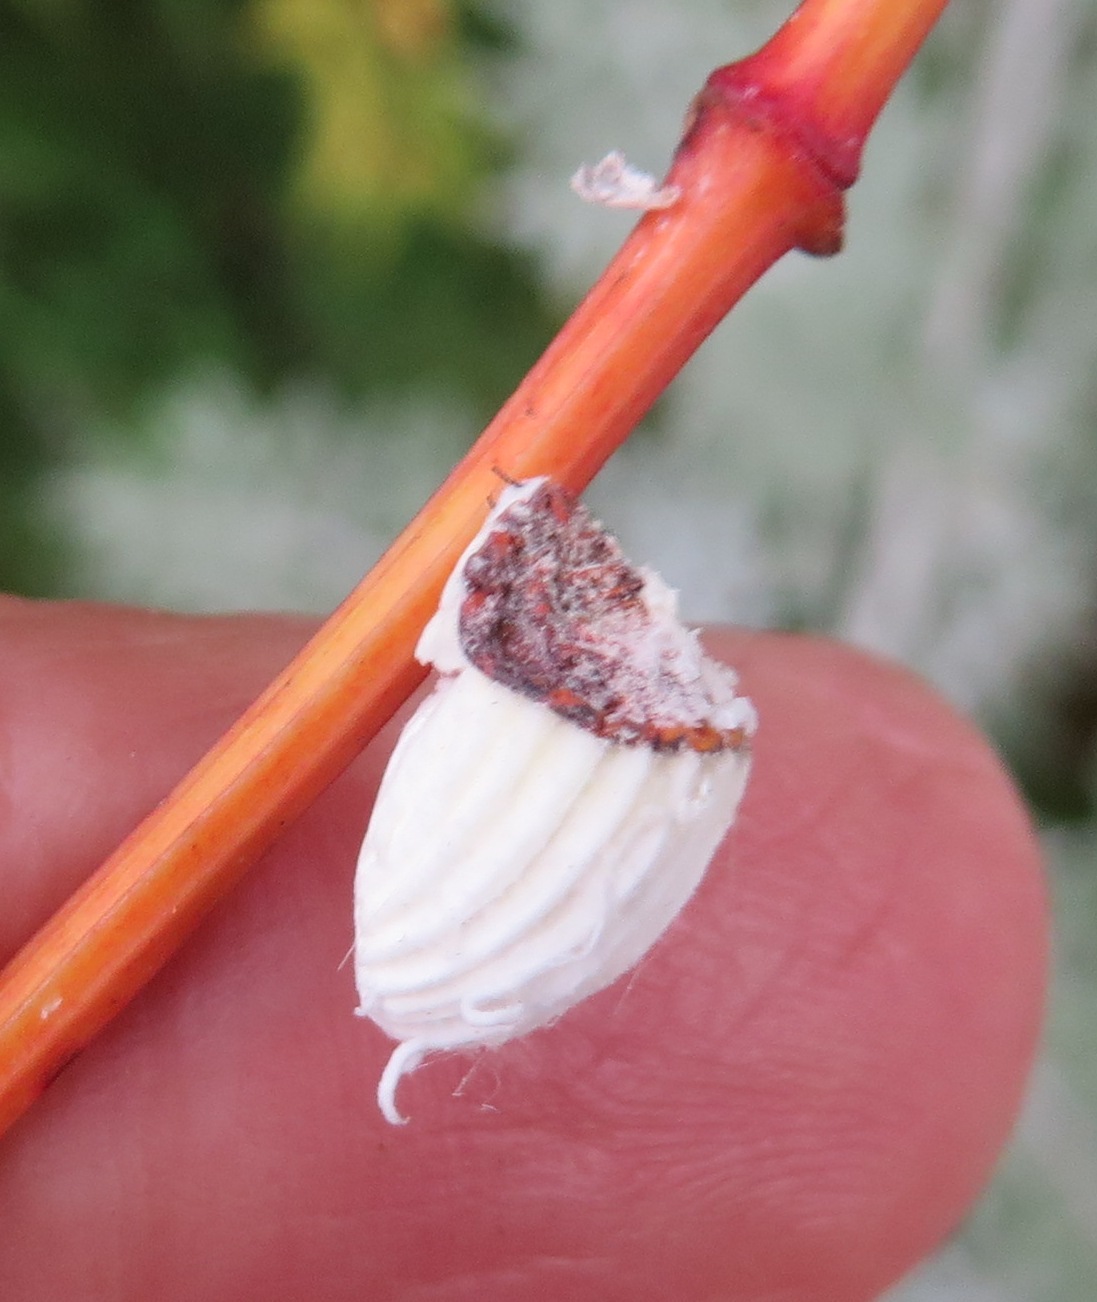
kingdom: Animalia
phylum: Arthropoda
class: Insecta
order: Hemiptera
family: Margarodidae
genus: Icerya
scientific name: Icerya purchasi
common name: Cottony cushion scale
